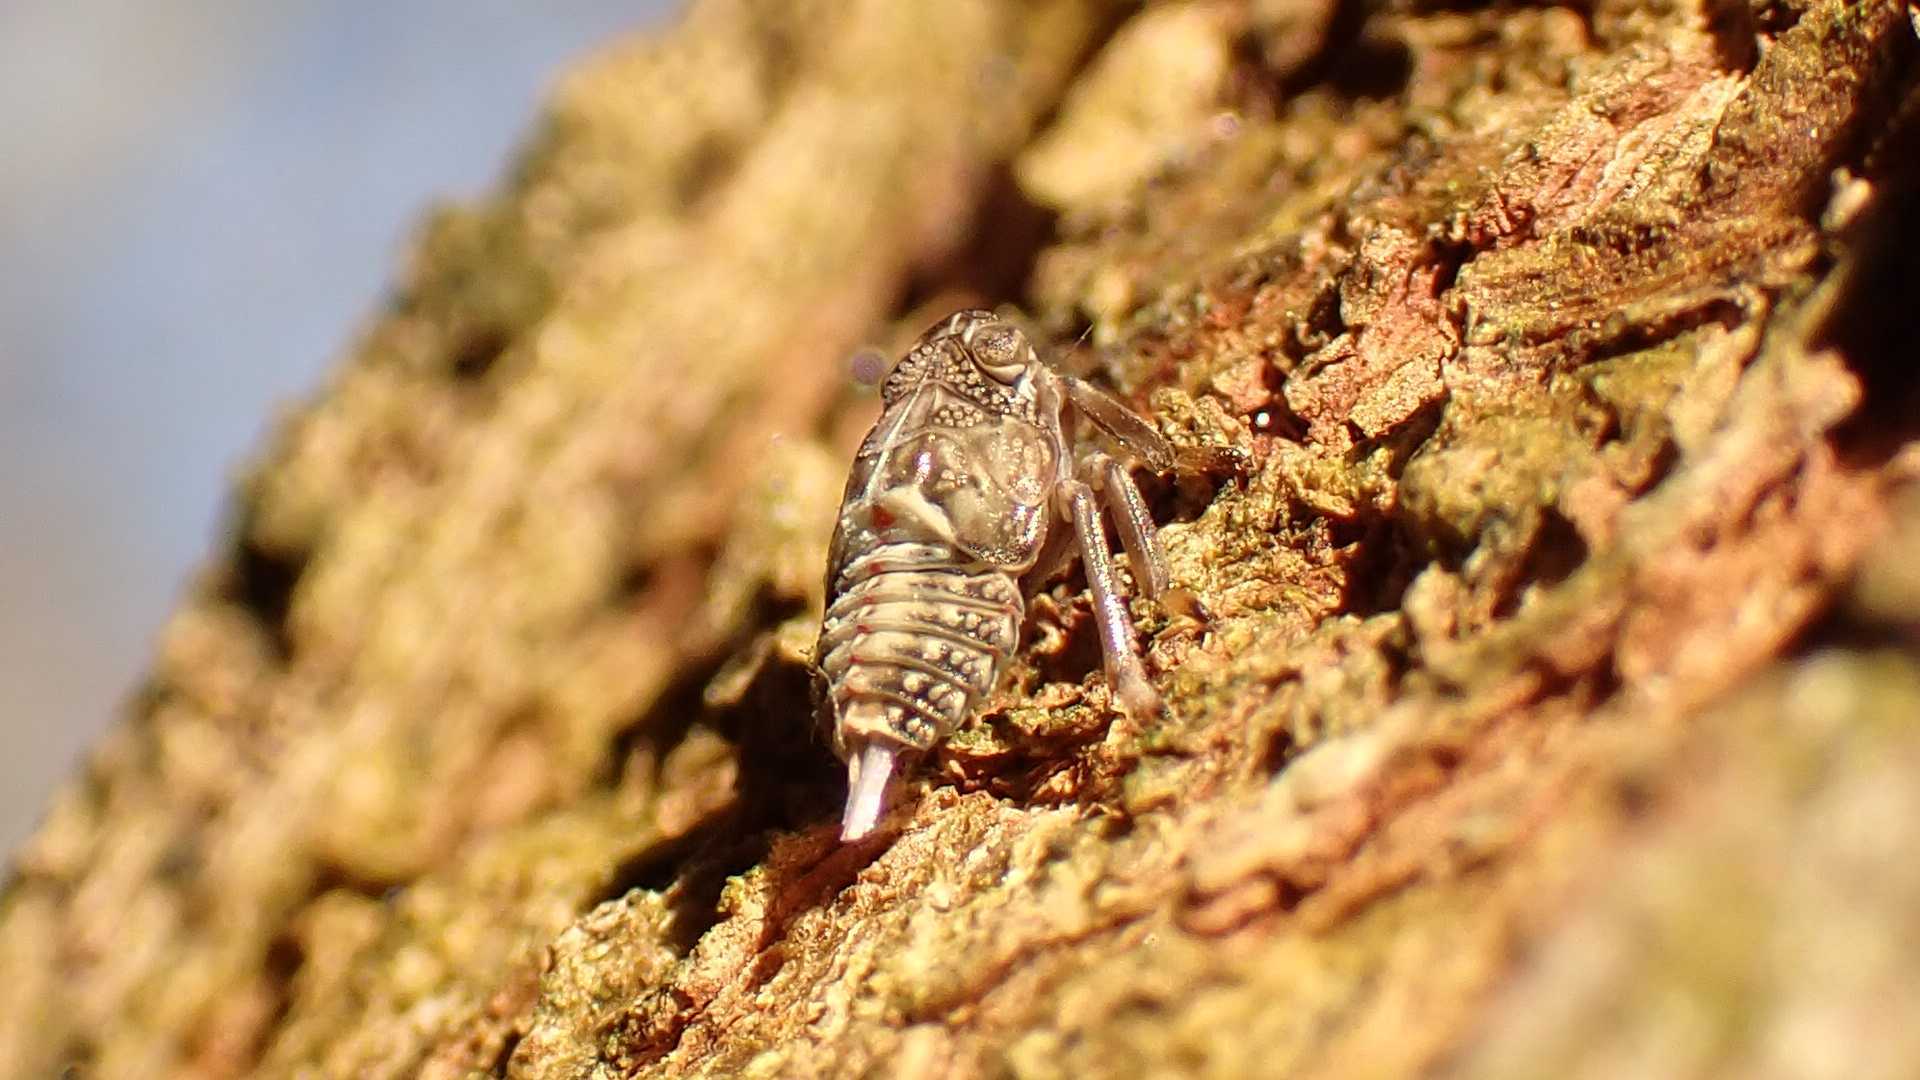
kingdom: Animalia
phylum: Arthropoda
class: Insecta
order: Hemiptera
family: Issidae
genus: Issus
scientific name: Issus
